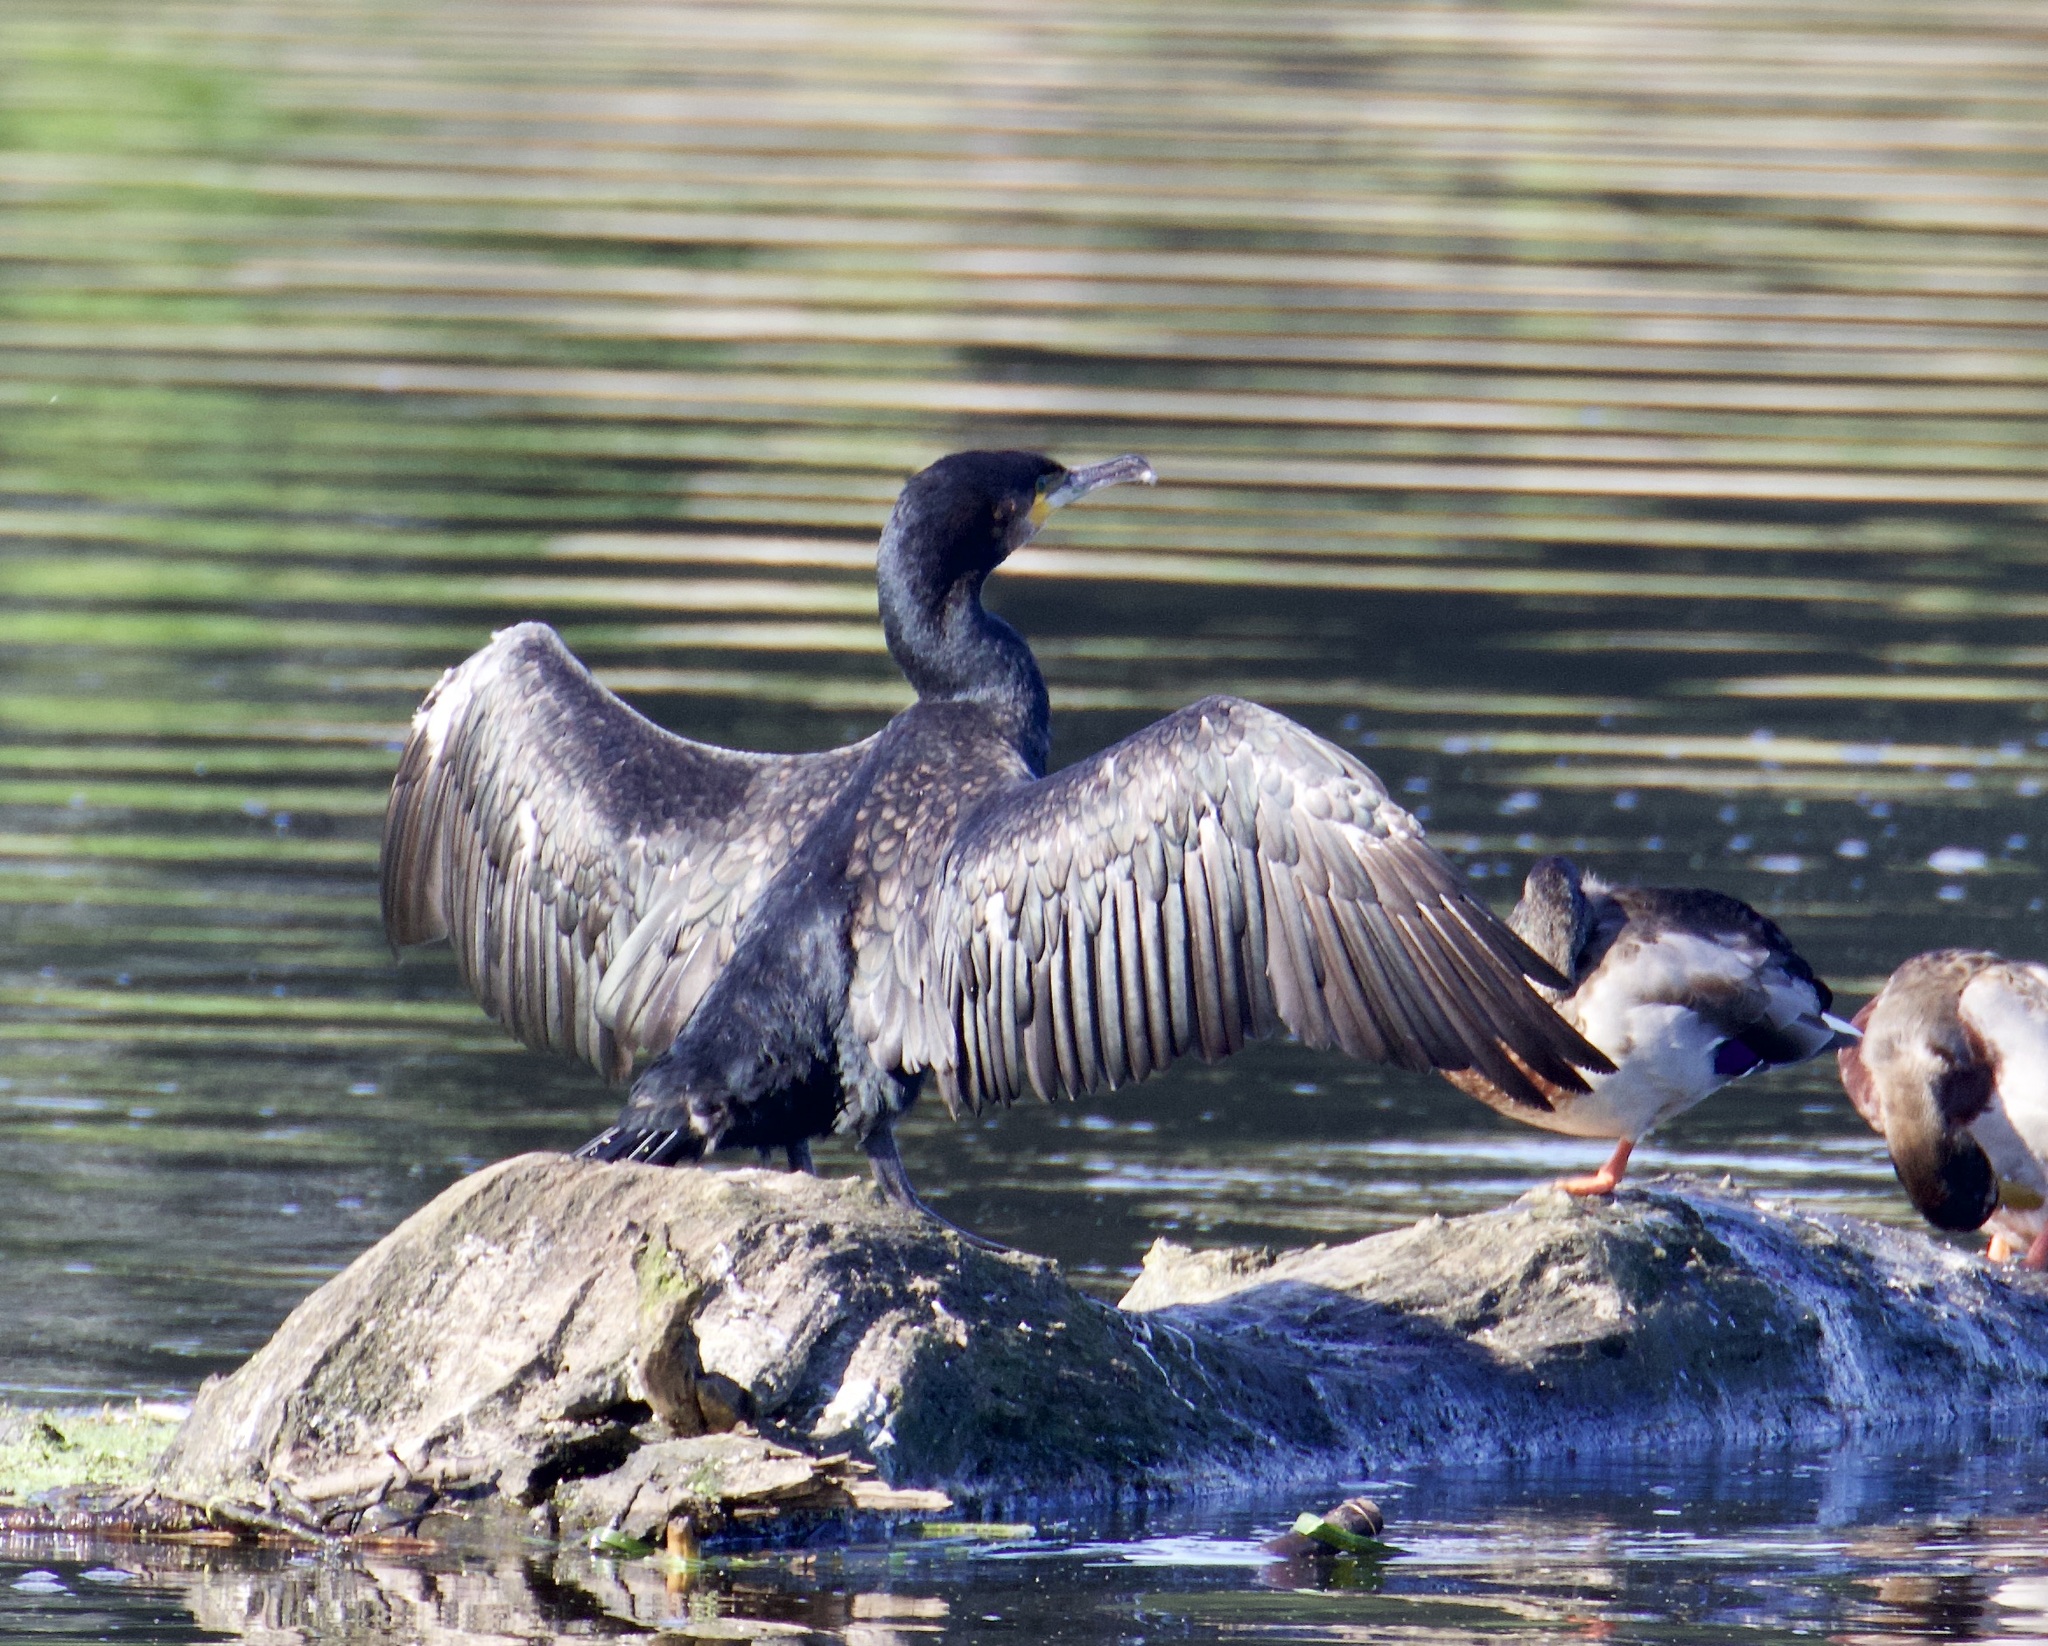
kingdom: Animalia
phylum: Chordata
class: Aves
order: Suliformes
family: Phalacrocoracidae
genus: Phalacrocorax
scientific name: Phalacrocorax carbo
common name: Great cormorant
